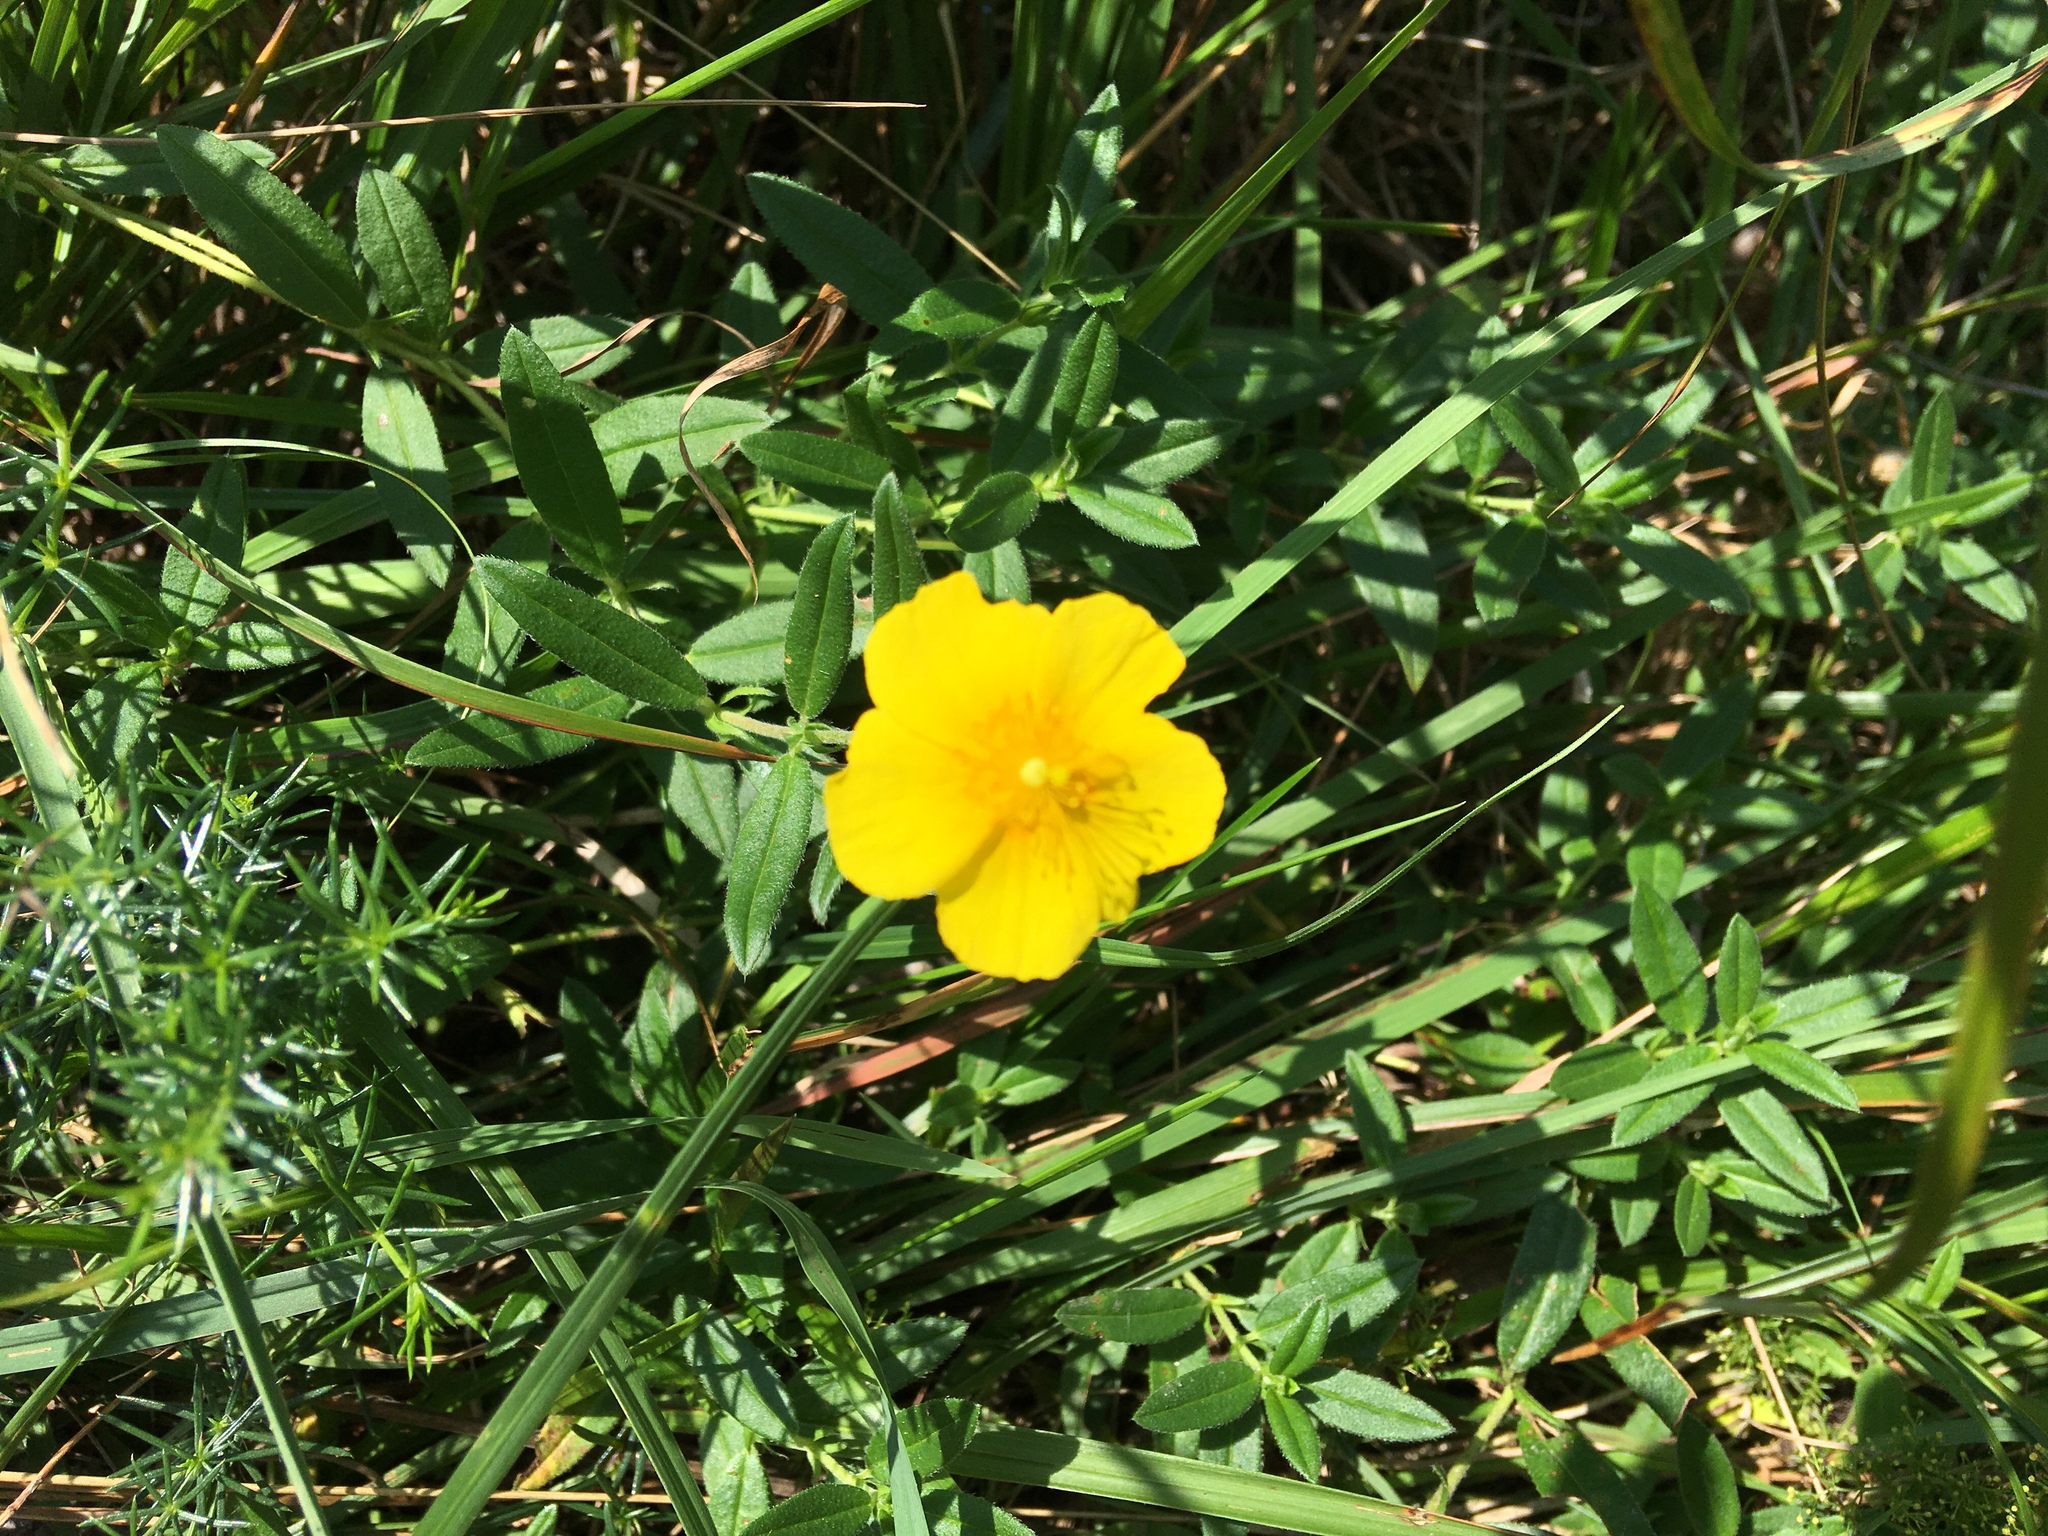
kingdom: Plantae
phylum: Tracheophyta
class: Magnoliopsida
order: Malvales
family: Cistaceae
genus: Helianthemum
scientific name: Helianthemum nummularium
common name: Common rock-rose
